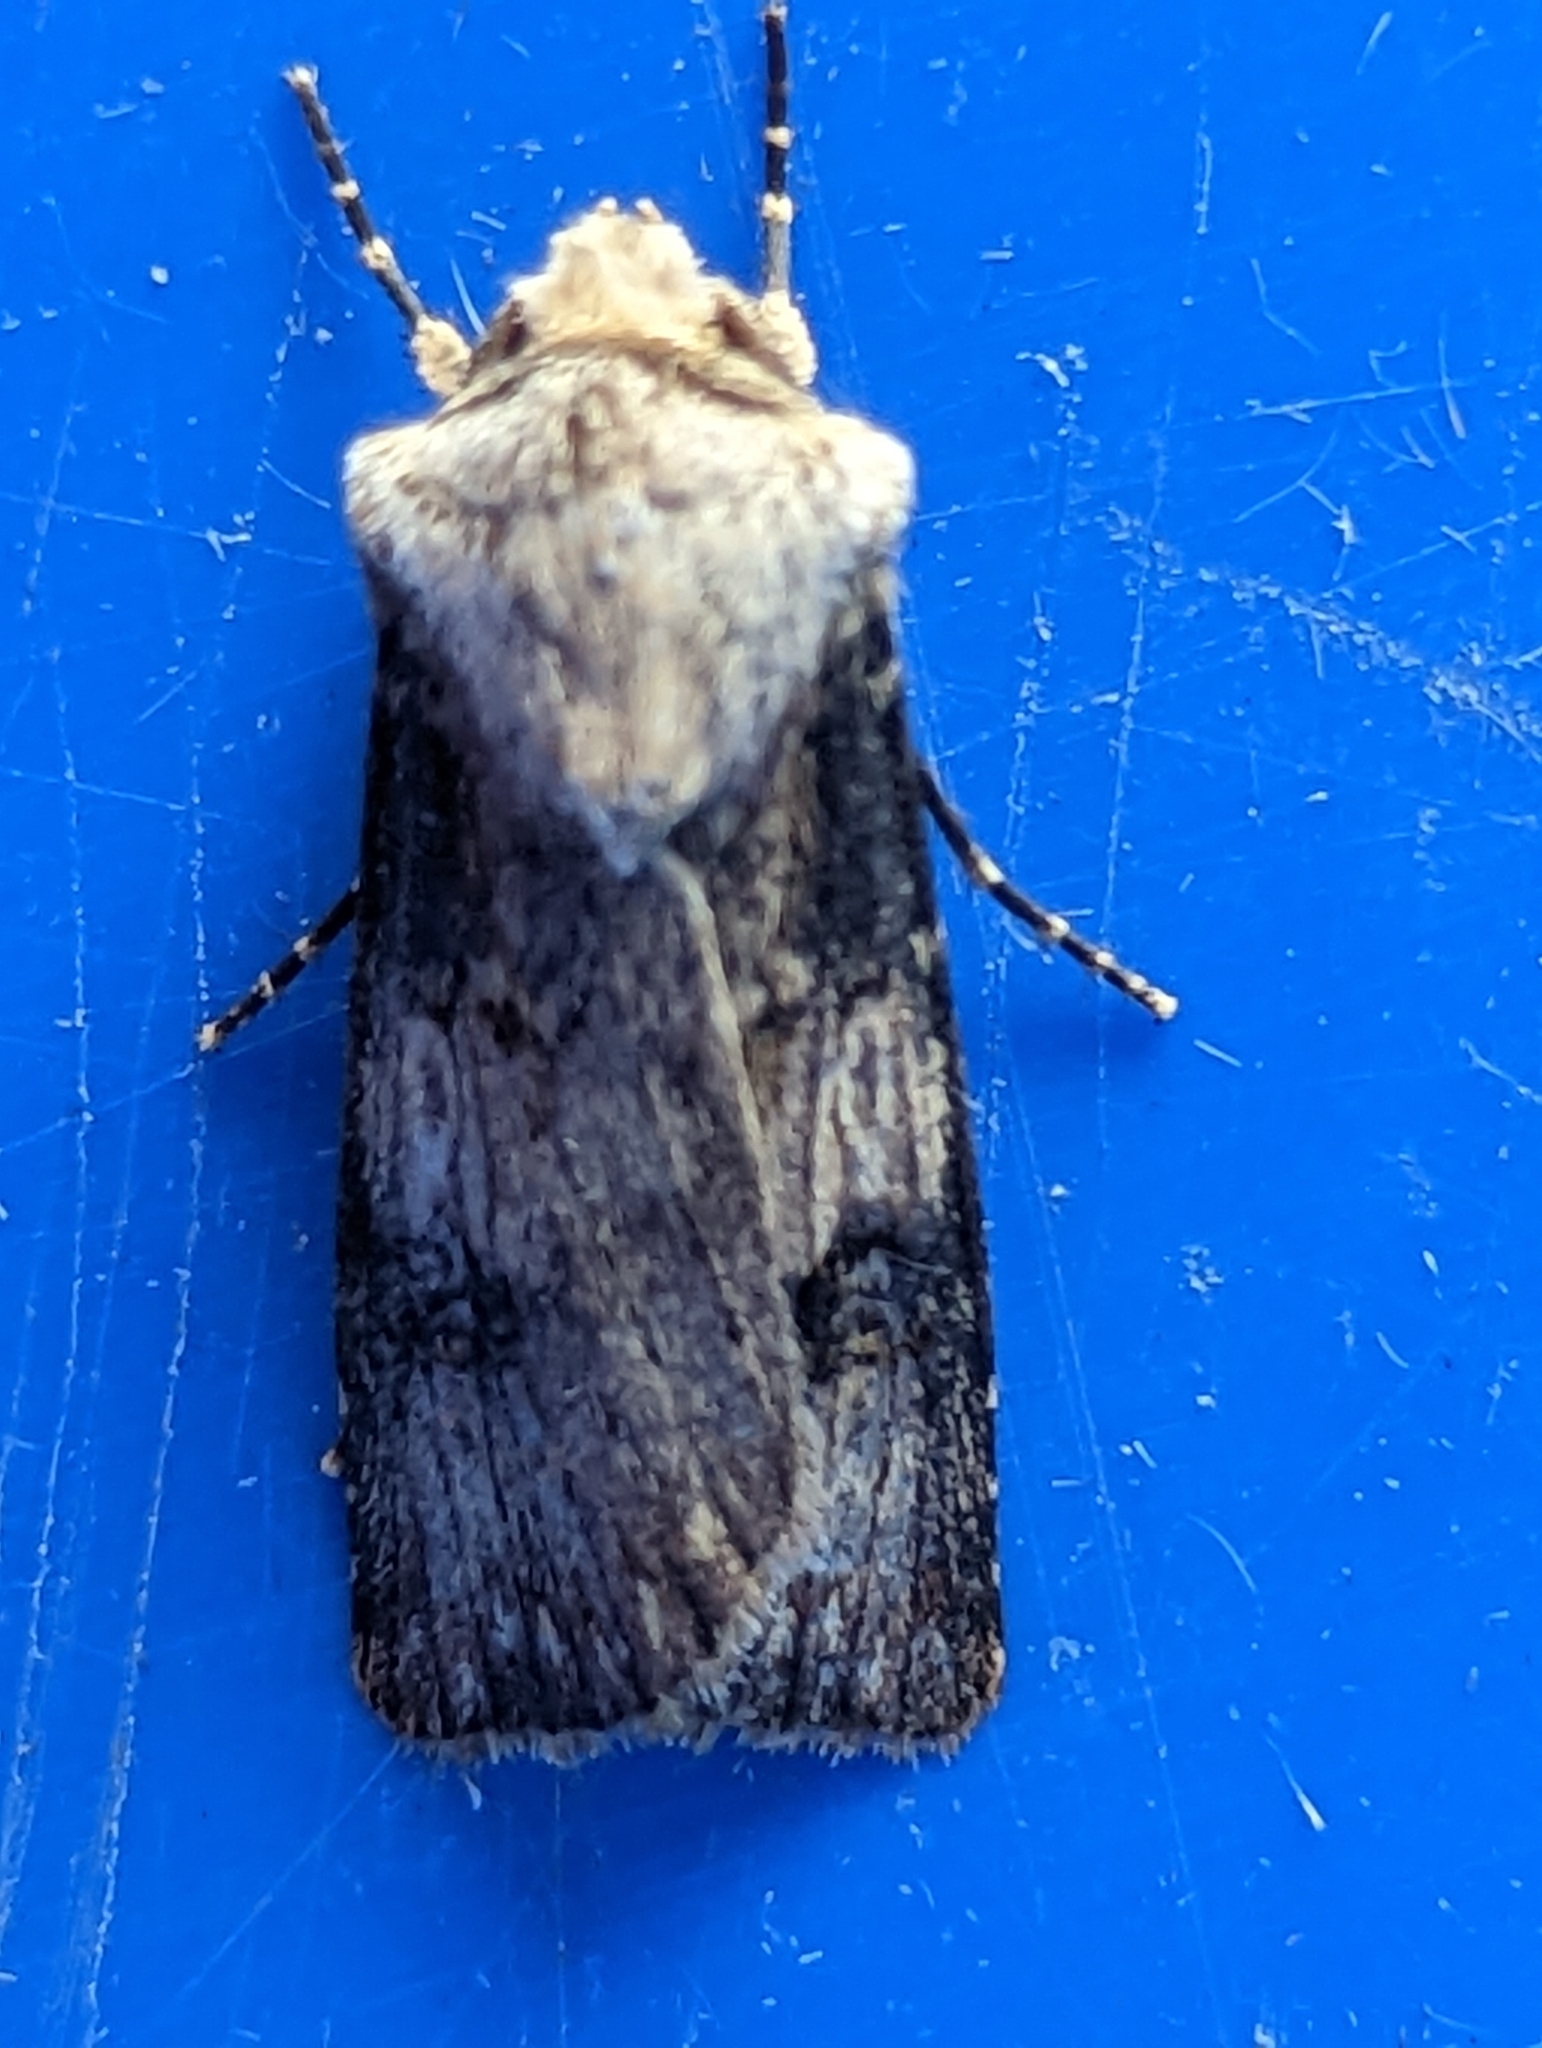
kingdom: Animalia
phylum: Arthropoda
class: Insecta
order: Lepidoptera
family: Noctuidae
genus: Agrotis
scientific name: Agrotis puta
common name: Shuttle-shaped dart
